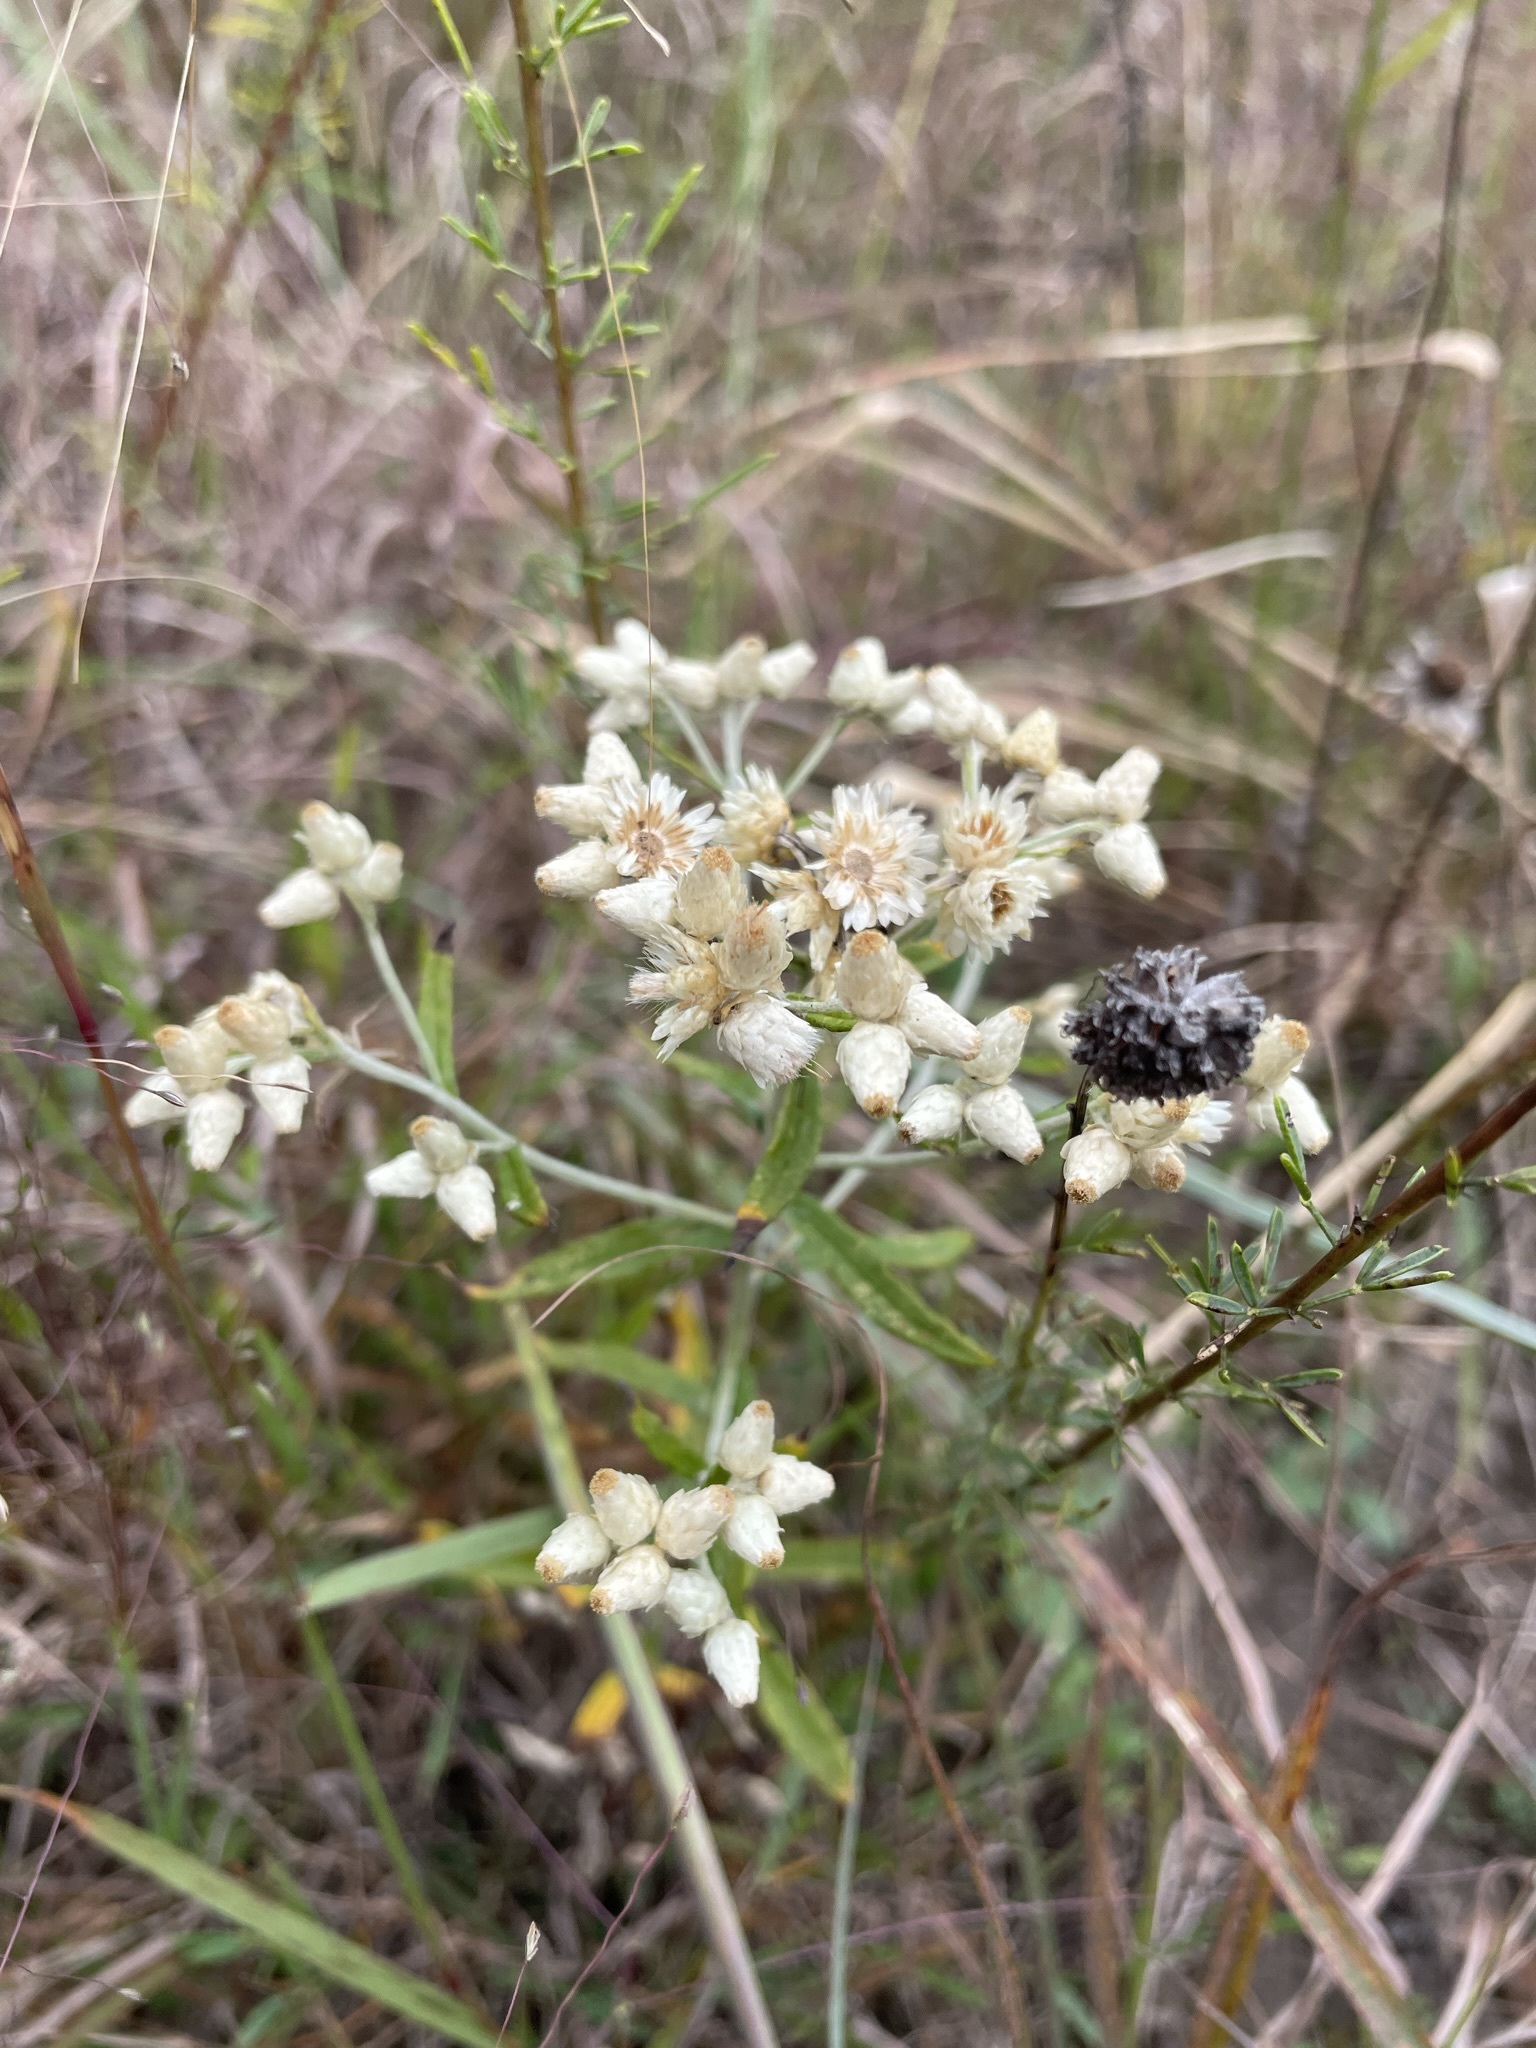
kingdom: Plantae
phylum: Tracheophyta
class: Magnoliopsida
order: Asterales
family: Asteraceae
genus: Pseudognaphalium
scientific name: Pseudognaphalium obtusifolium
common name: Eastern rabbit-tobacco
